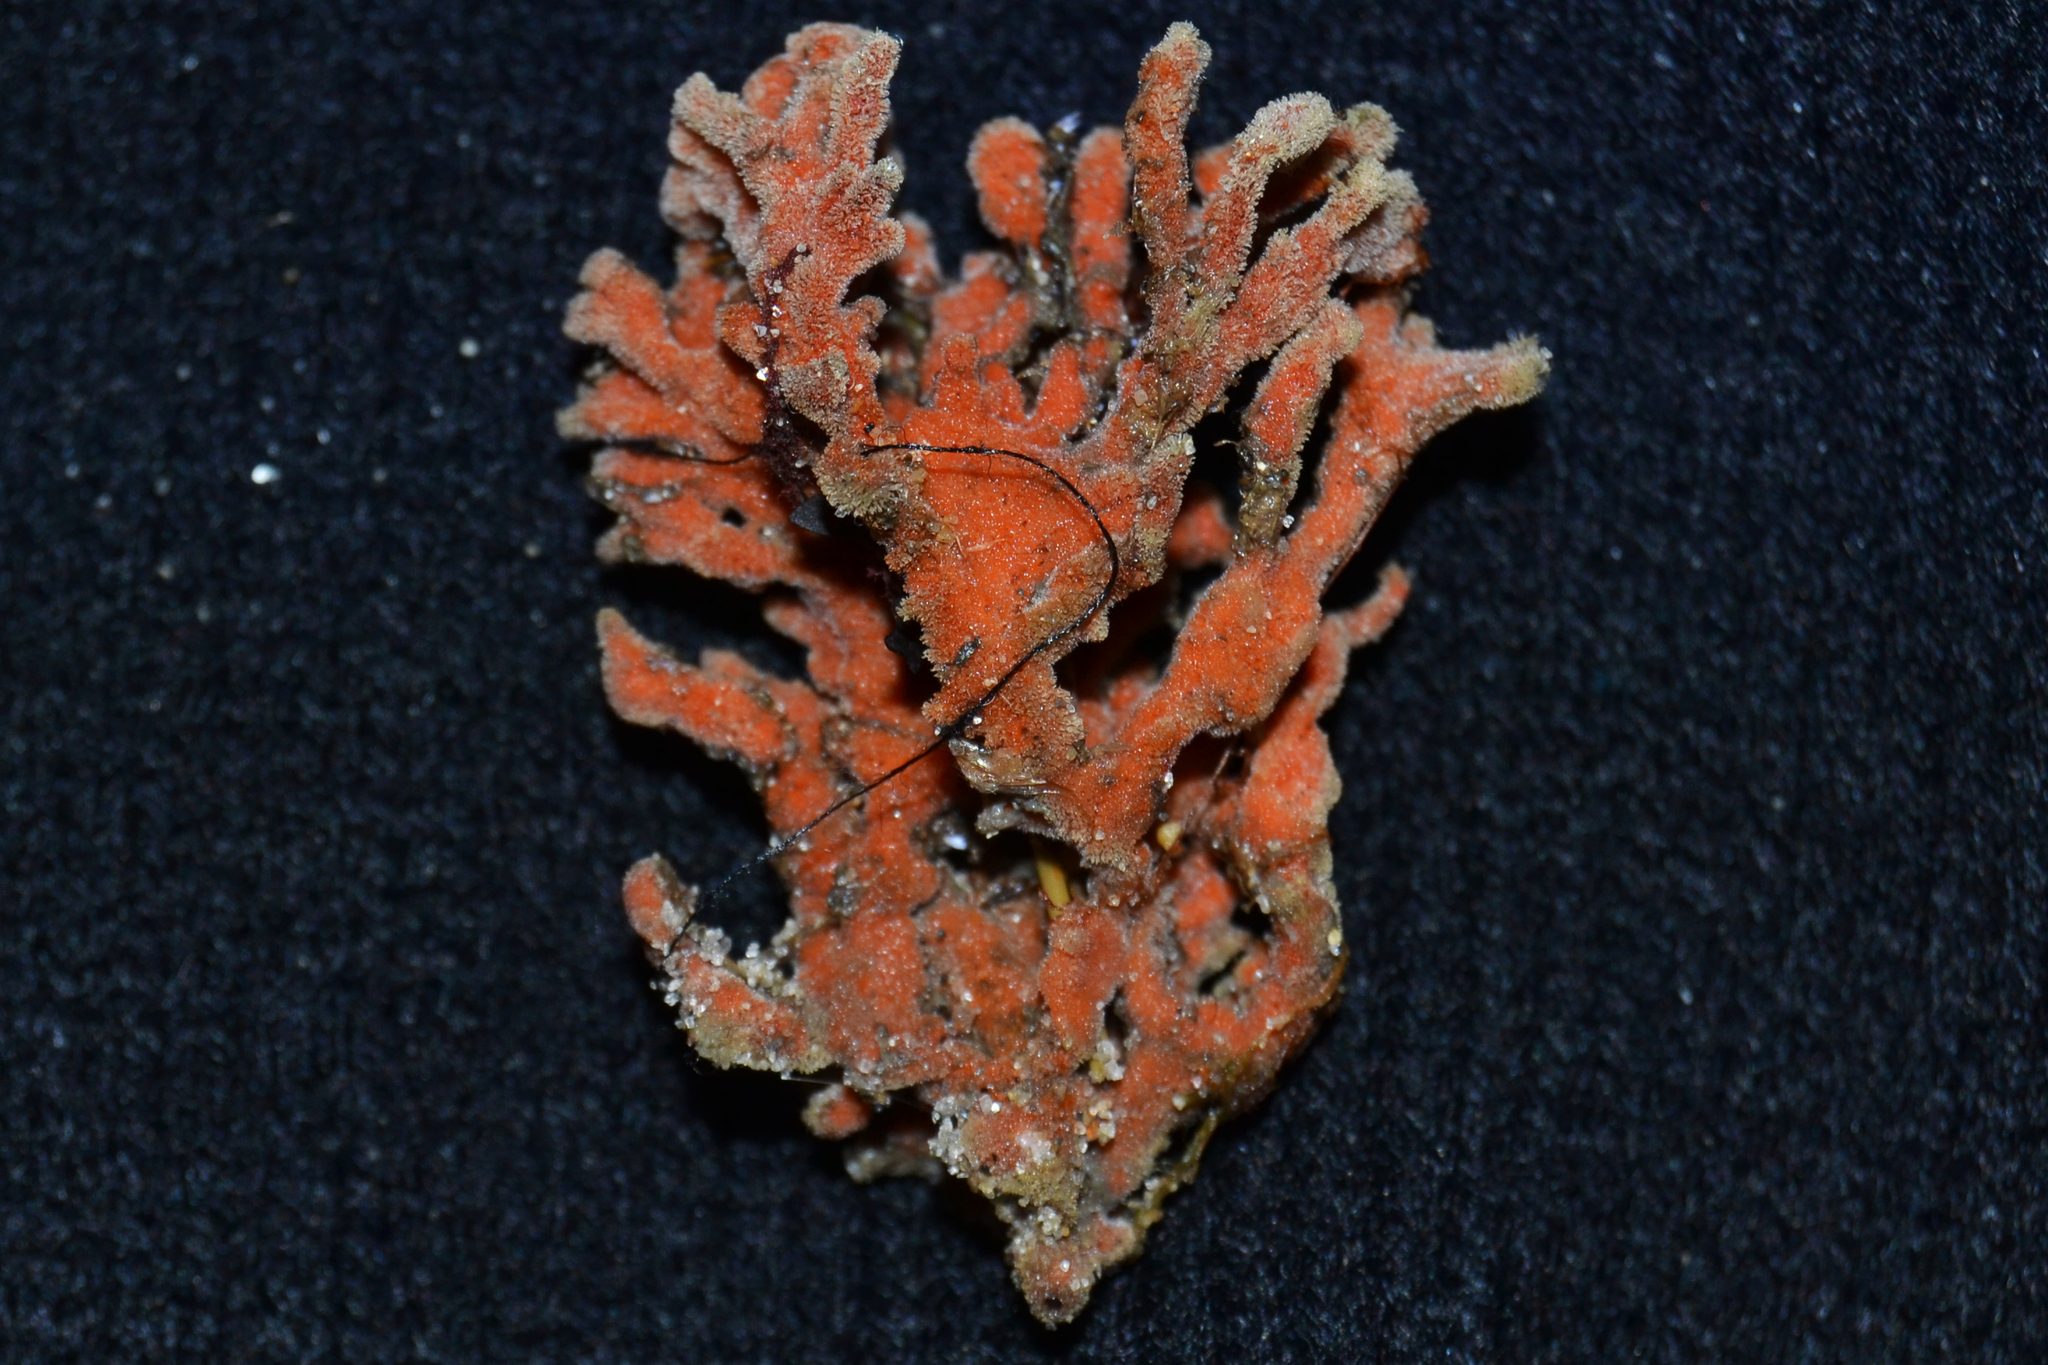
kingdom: Animalia
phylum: Porifera
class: Demospongiae
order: Poecilosclerida
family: Microcionidae
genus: Clathria
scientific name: Clathria prolifera
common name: Red beard sponge
